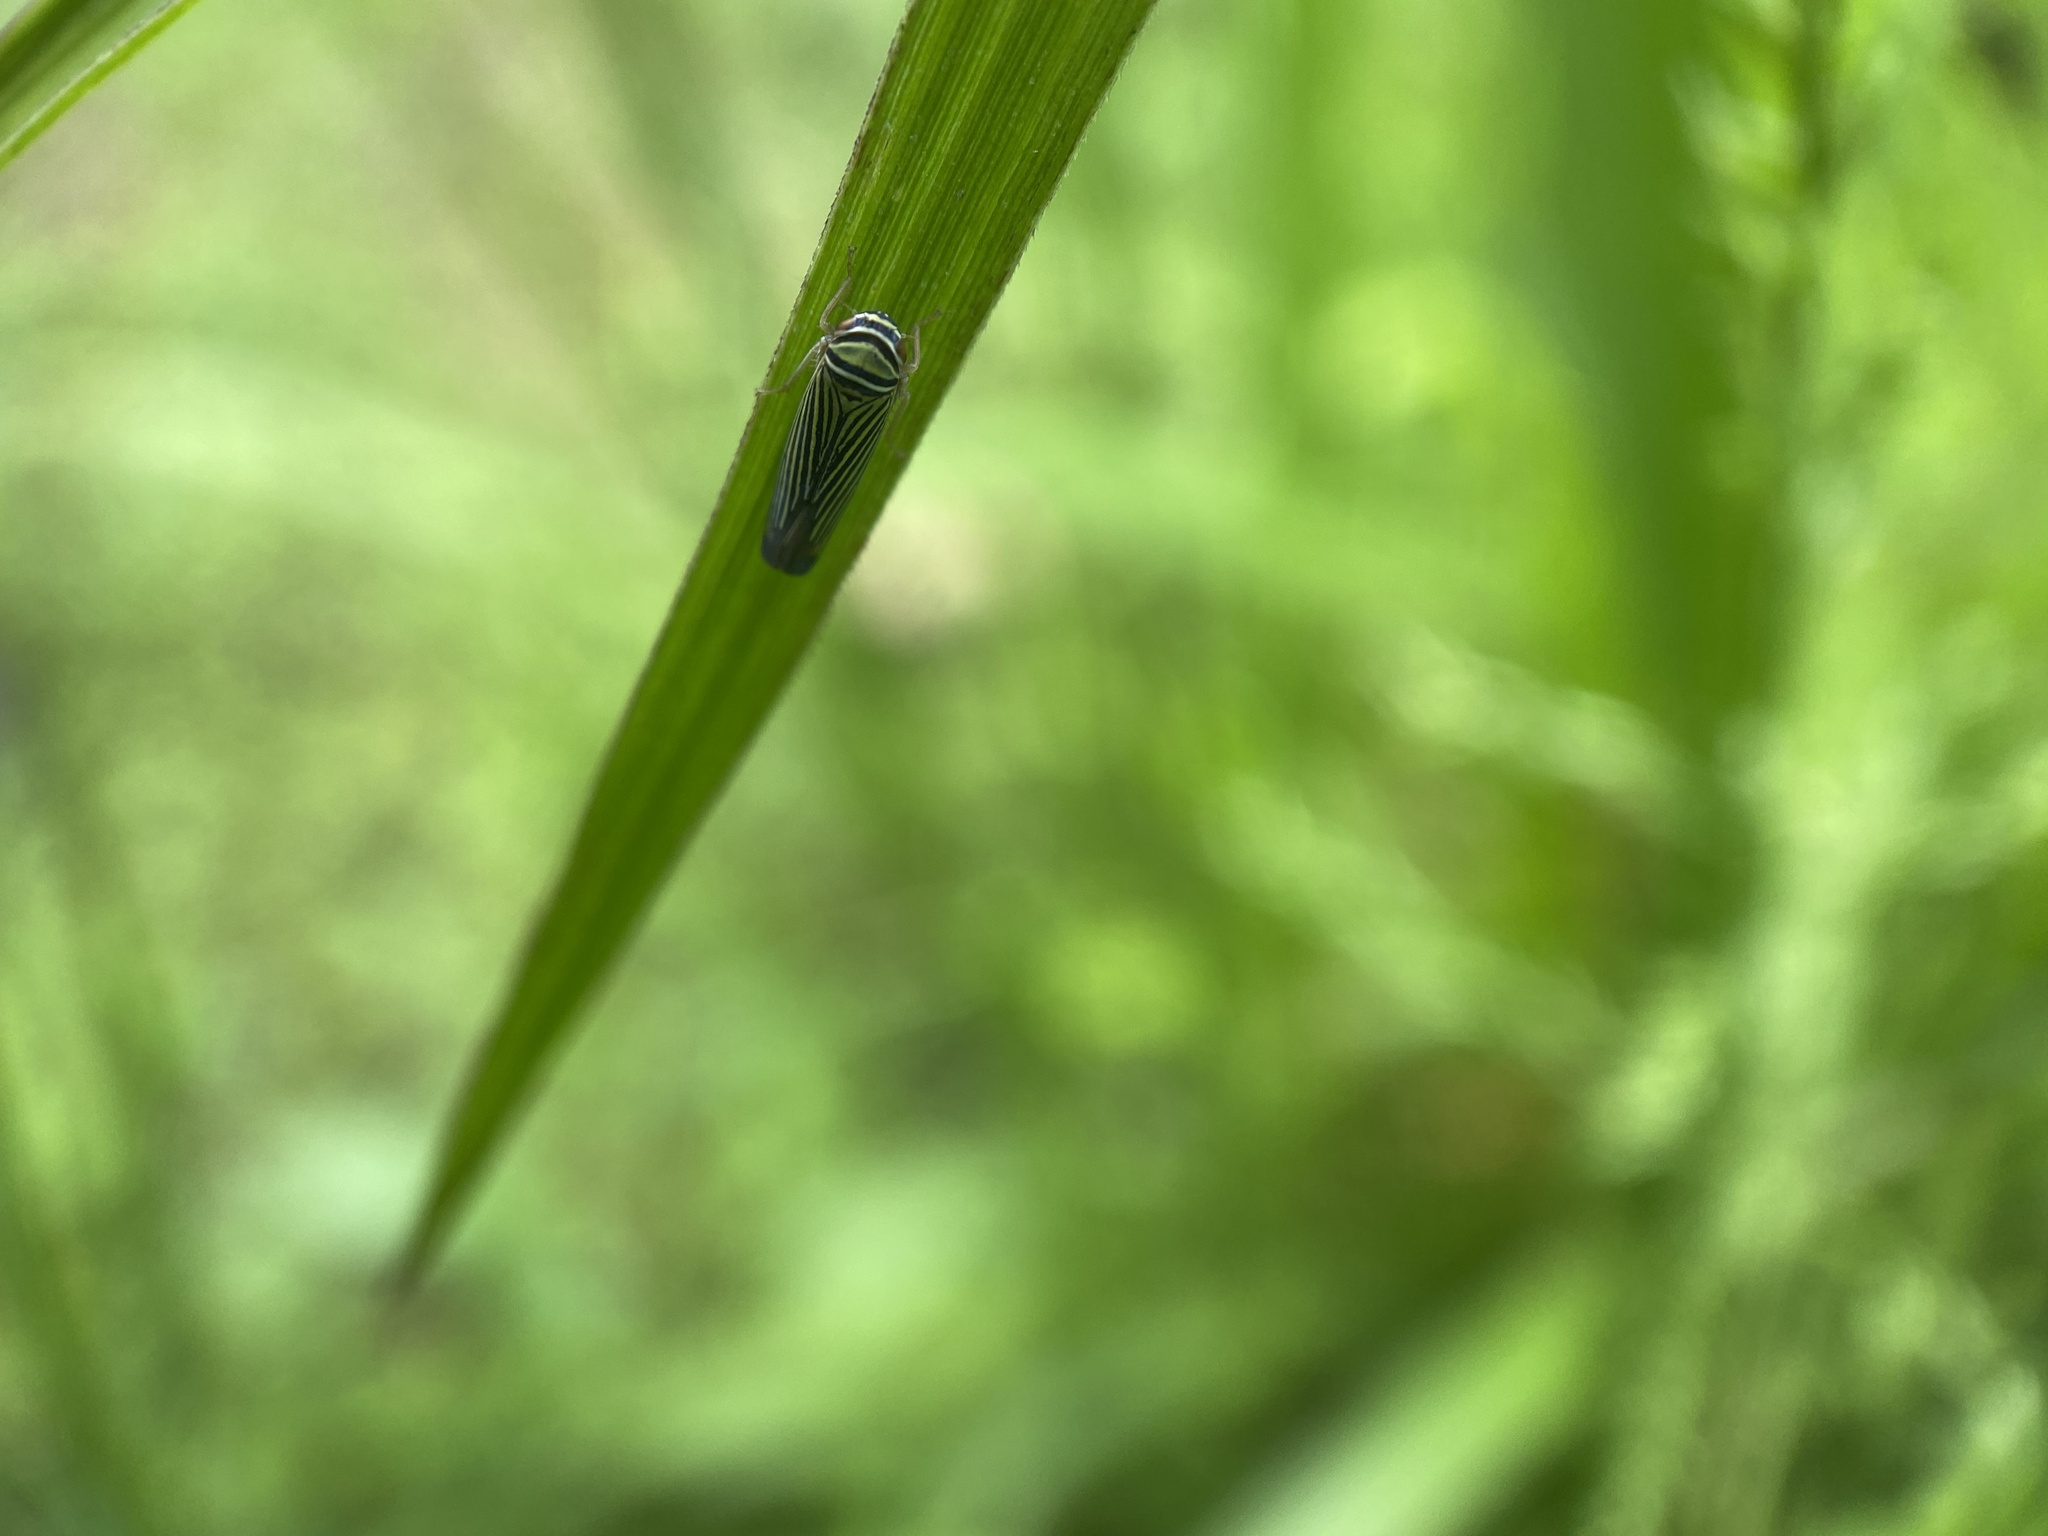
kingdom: Animalia
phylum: Arthropoda
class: Insecta
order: Hemiptera
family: Cicadellidae
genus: Tylozygus
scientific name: Tylozygus bifidus
